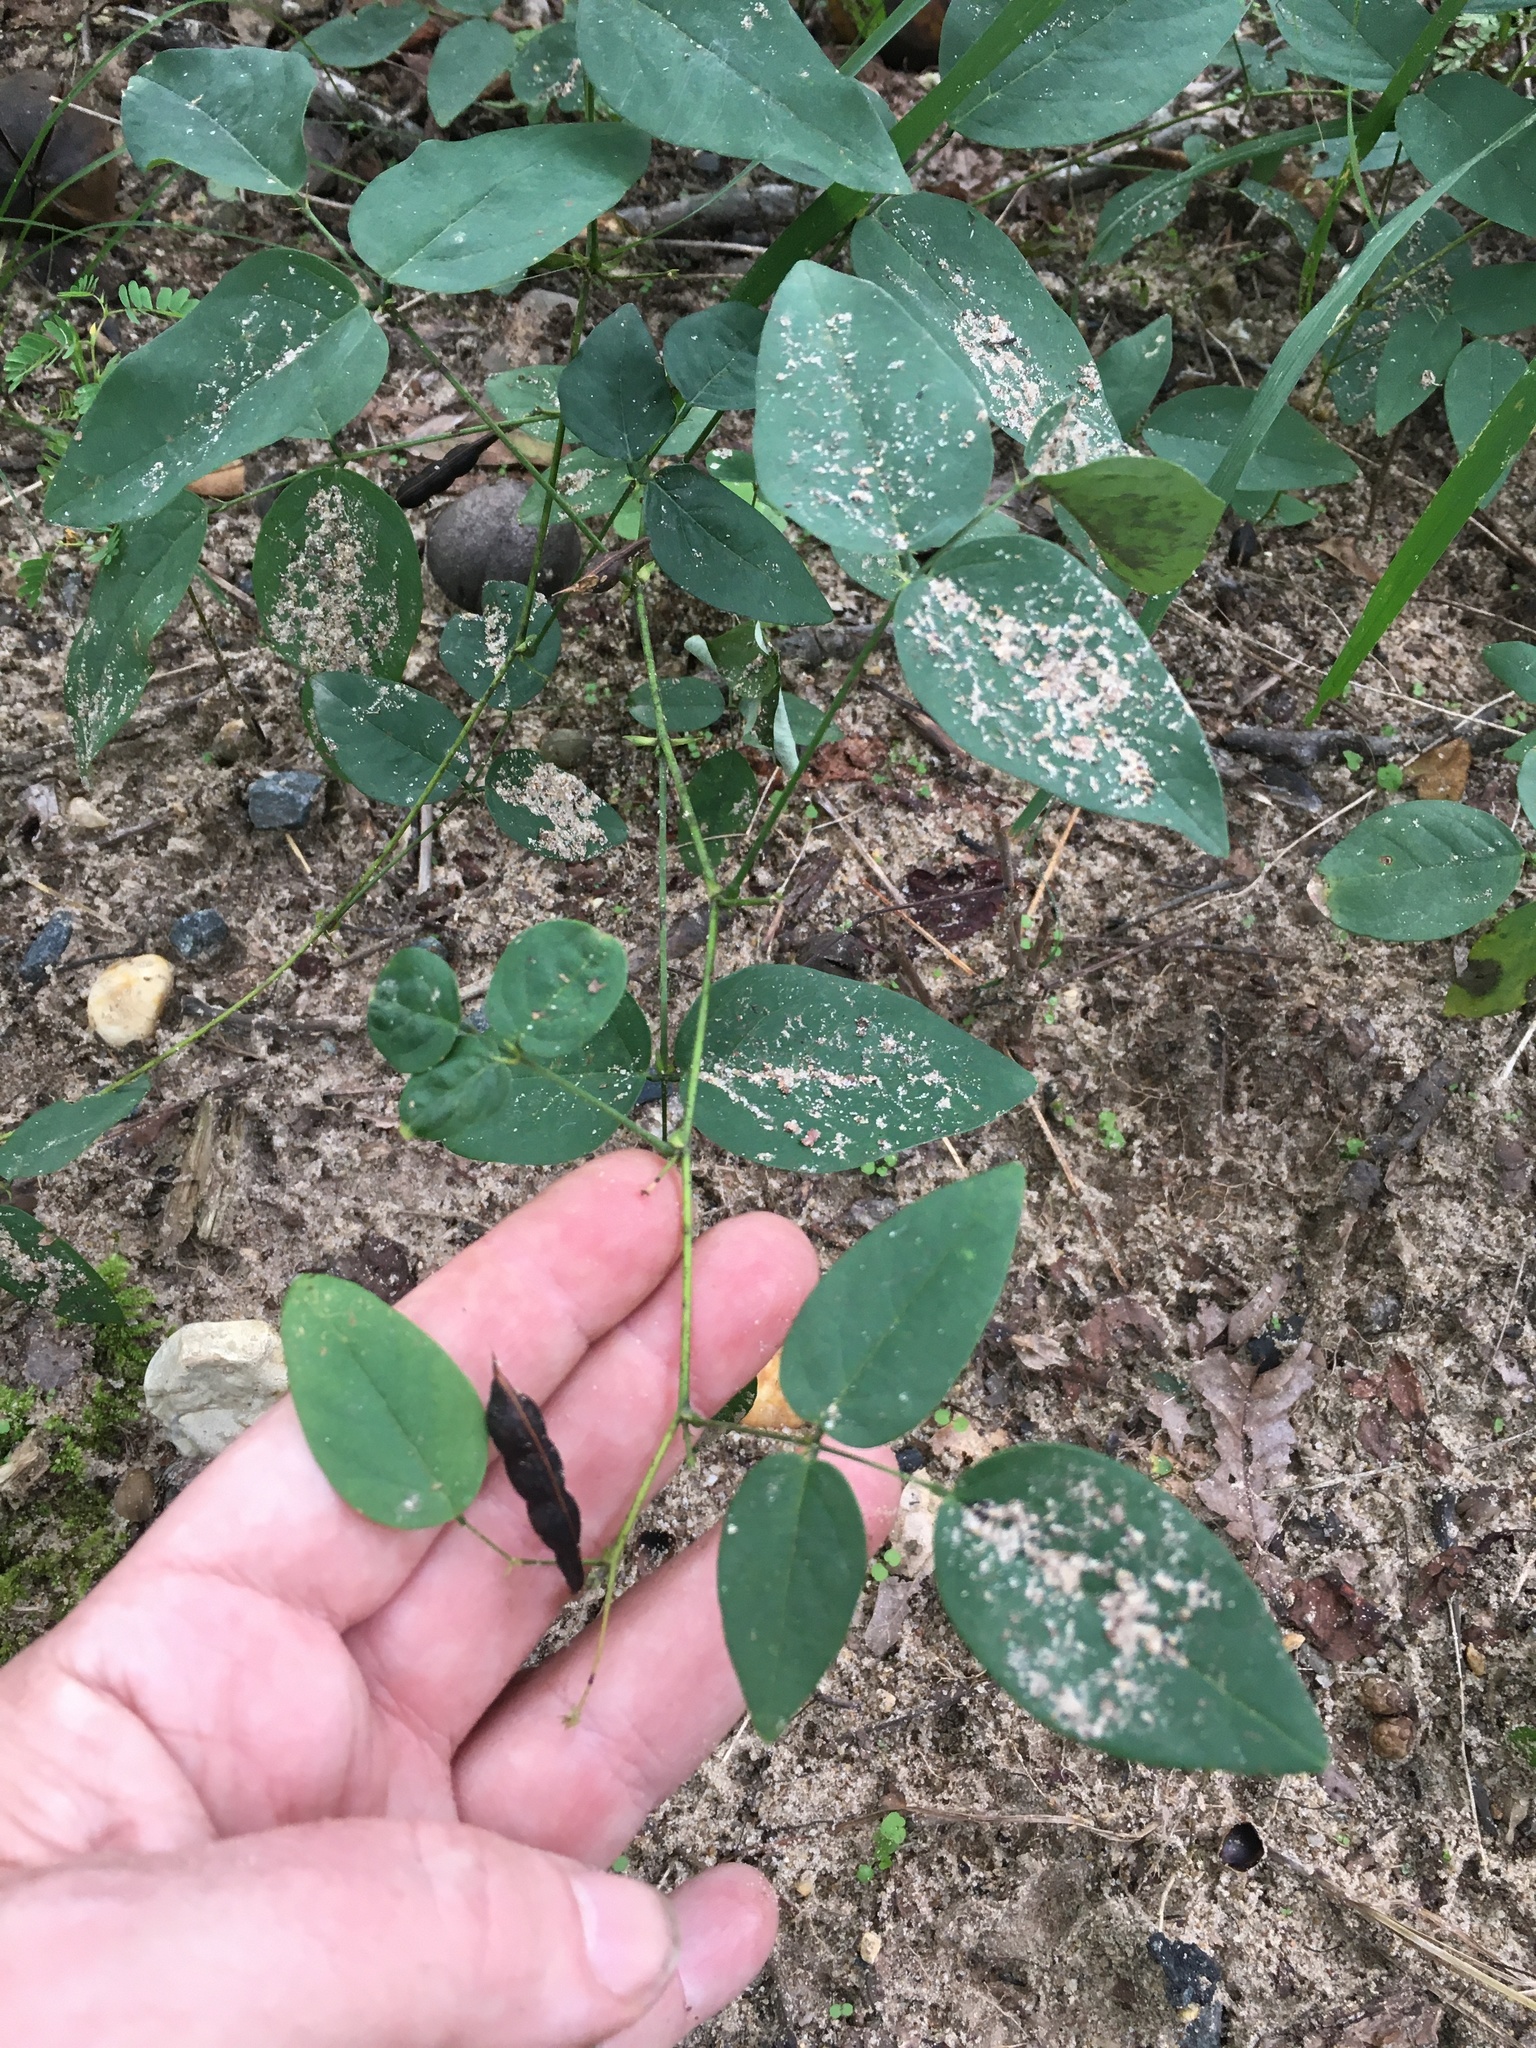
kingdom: Plantae
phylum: Tracheophyta
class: Magnoliopsida
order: Fabales
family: Fabaceae
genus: Clitoria
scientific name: Clitoria mariana
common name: Butterfly-pea
